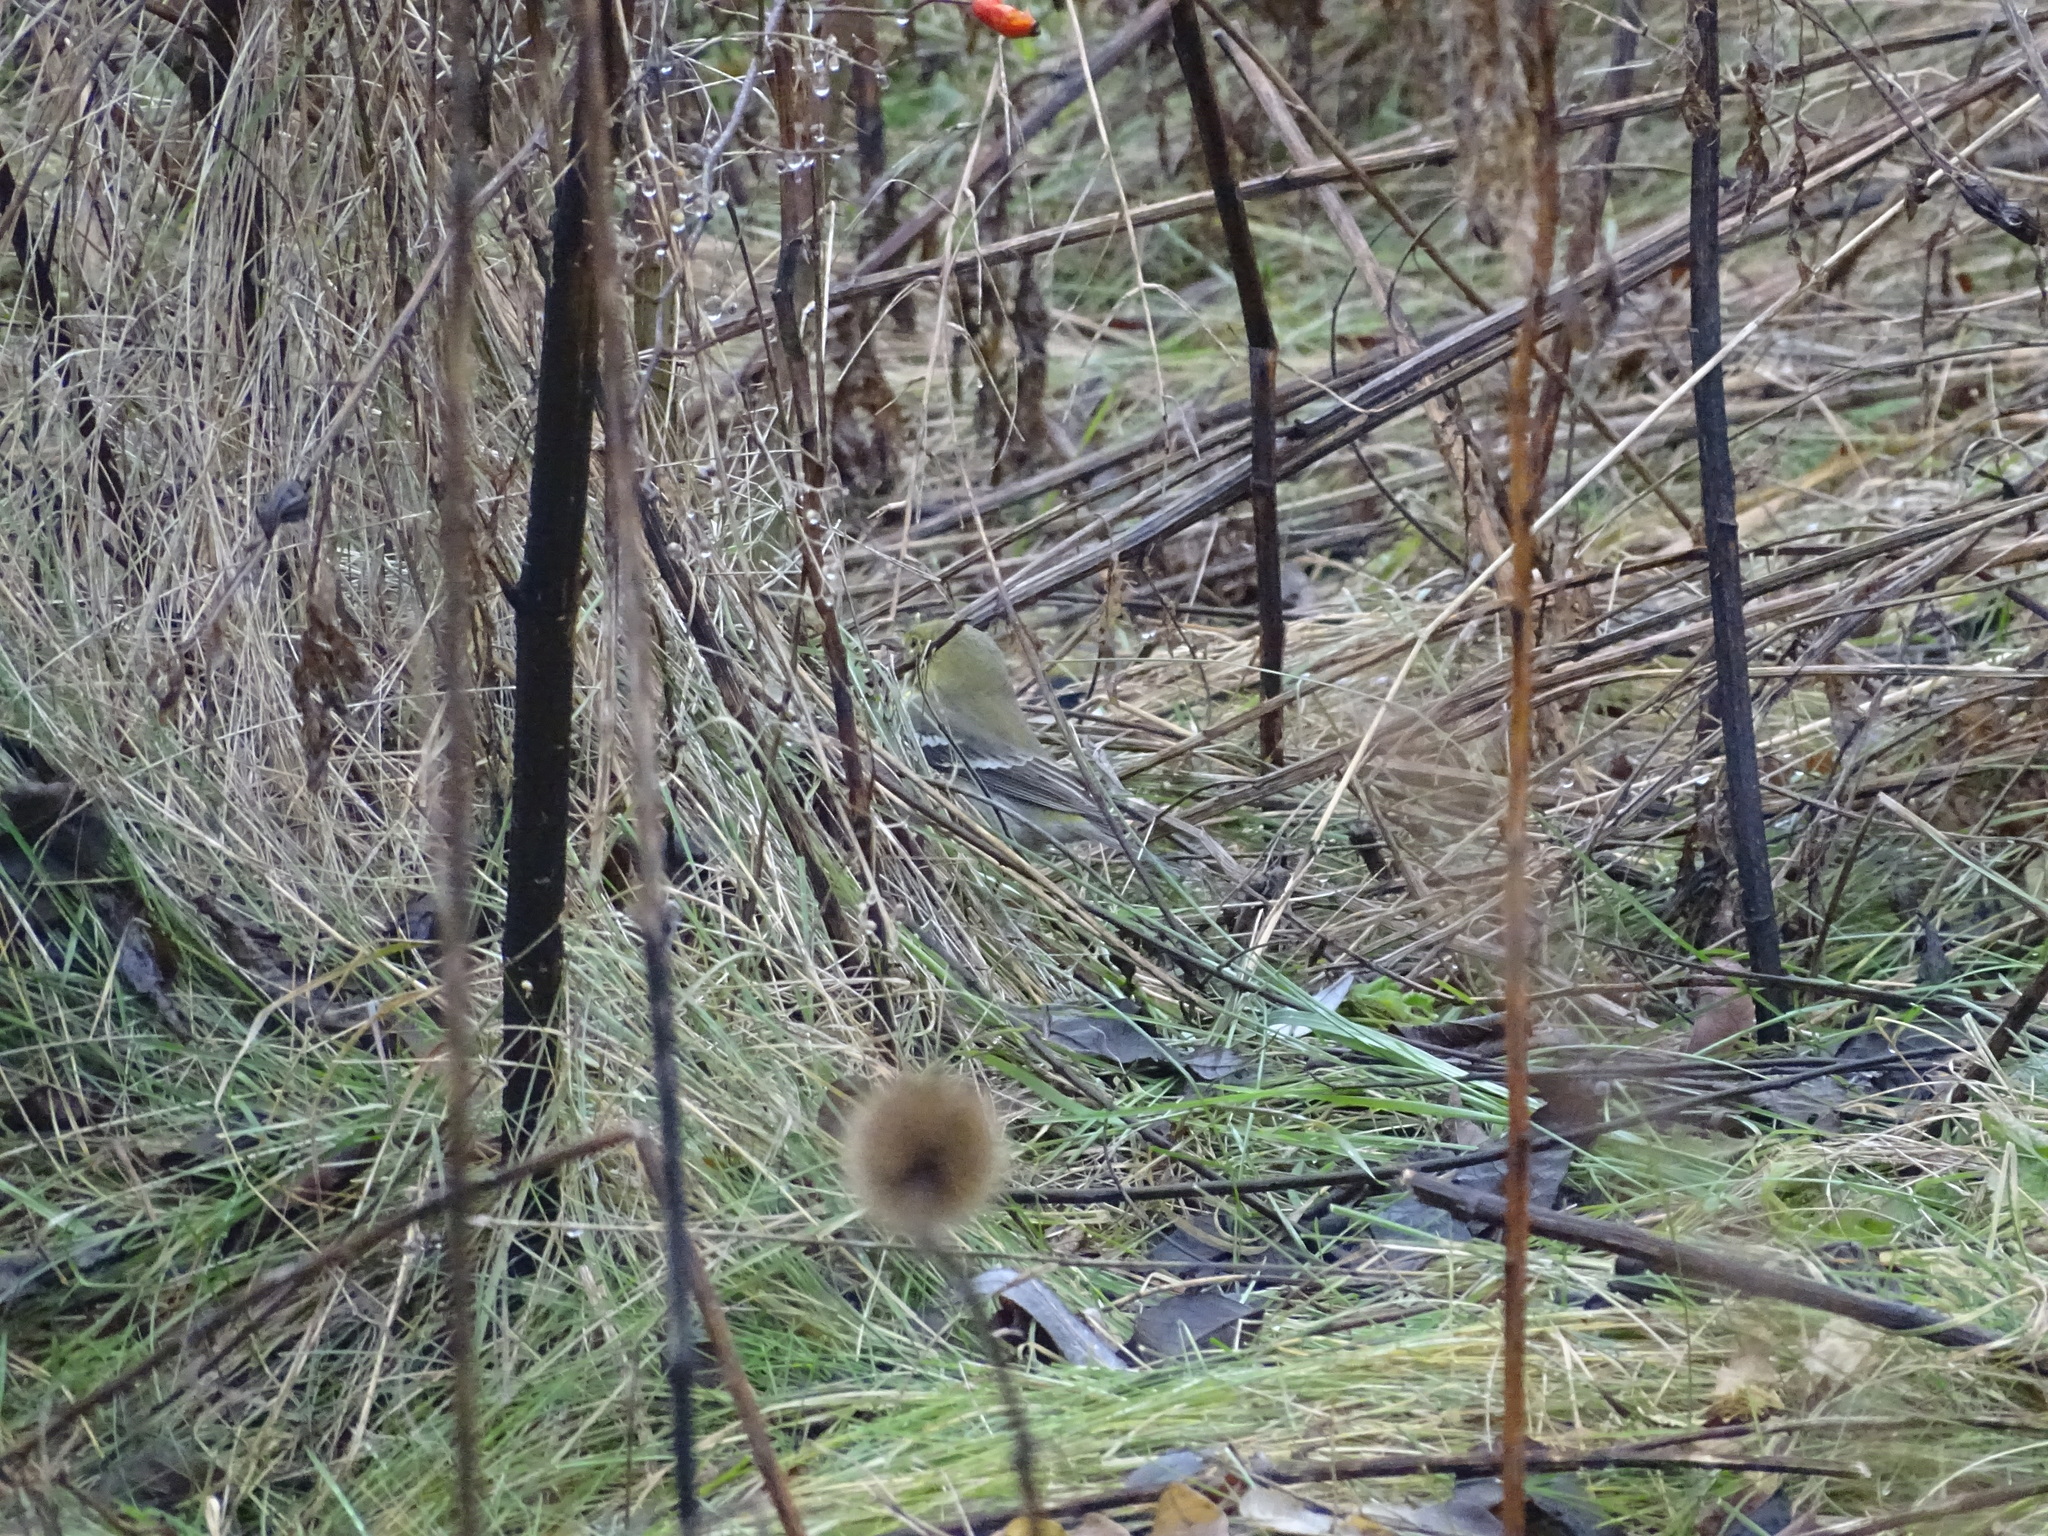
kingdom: Animalia
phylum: Chordata
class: Aves
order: Passeriformes
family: Parulidae
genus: Setophaga
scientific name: Setophaga pinus
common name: Pine warbler
